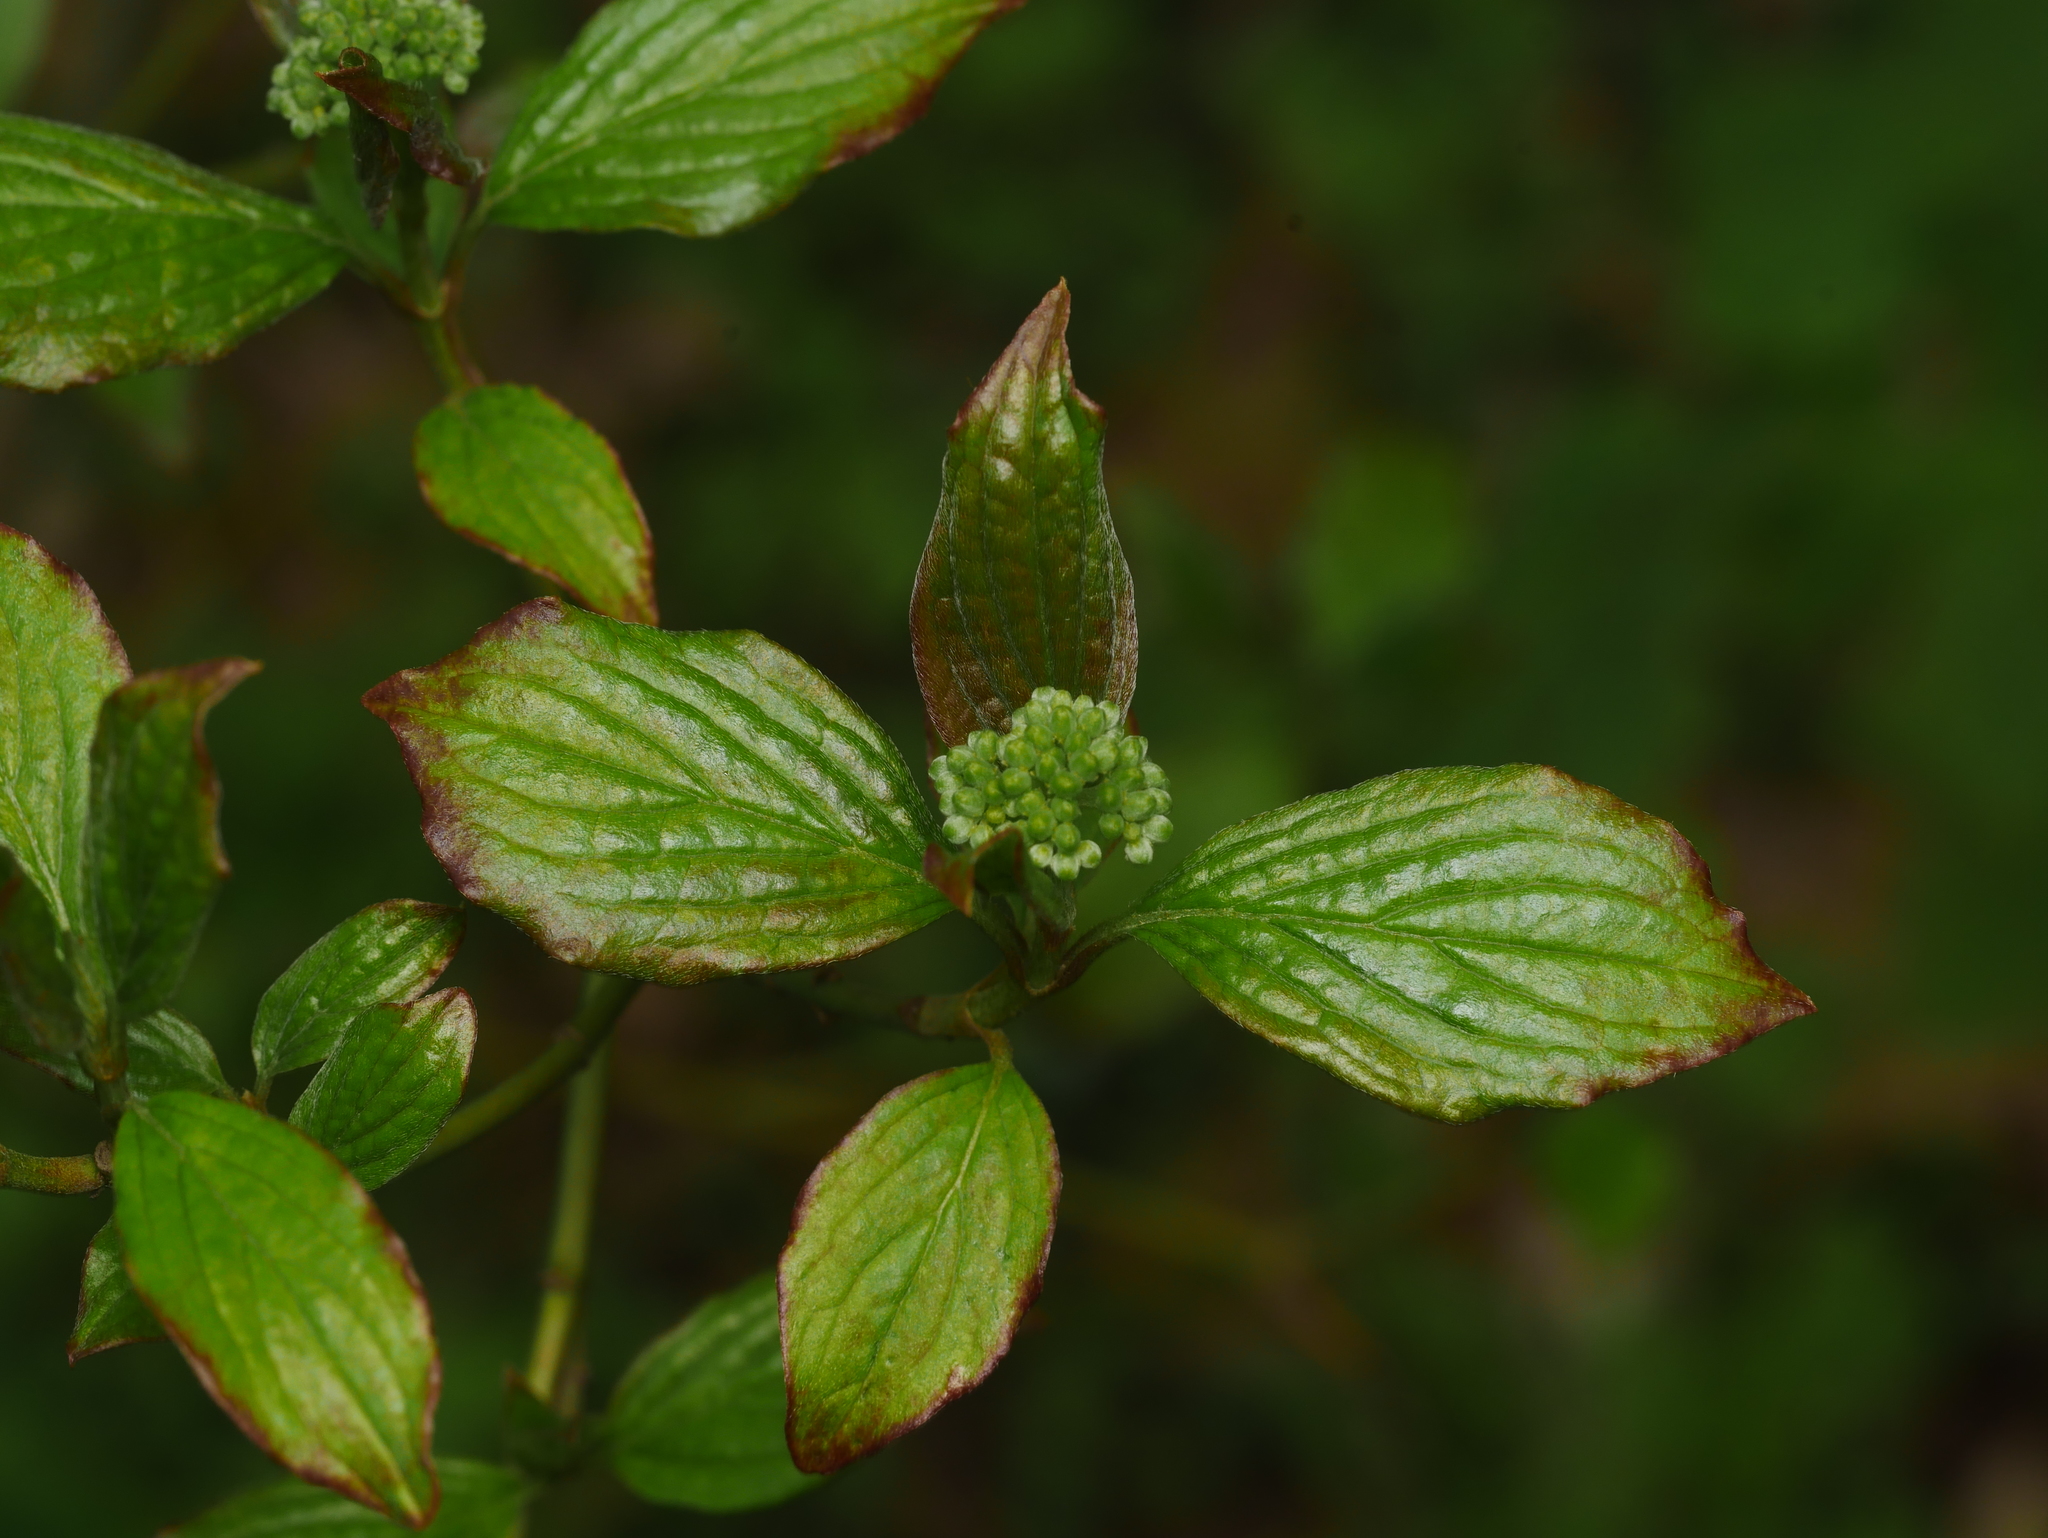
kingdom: Plantae
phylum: Tracheophyta
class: Magnoliopsida
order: Cornales
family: Cornaceae
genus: Cornus
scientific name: Cornus sanguinea
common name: Dogwood
